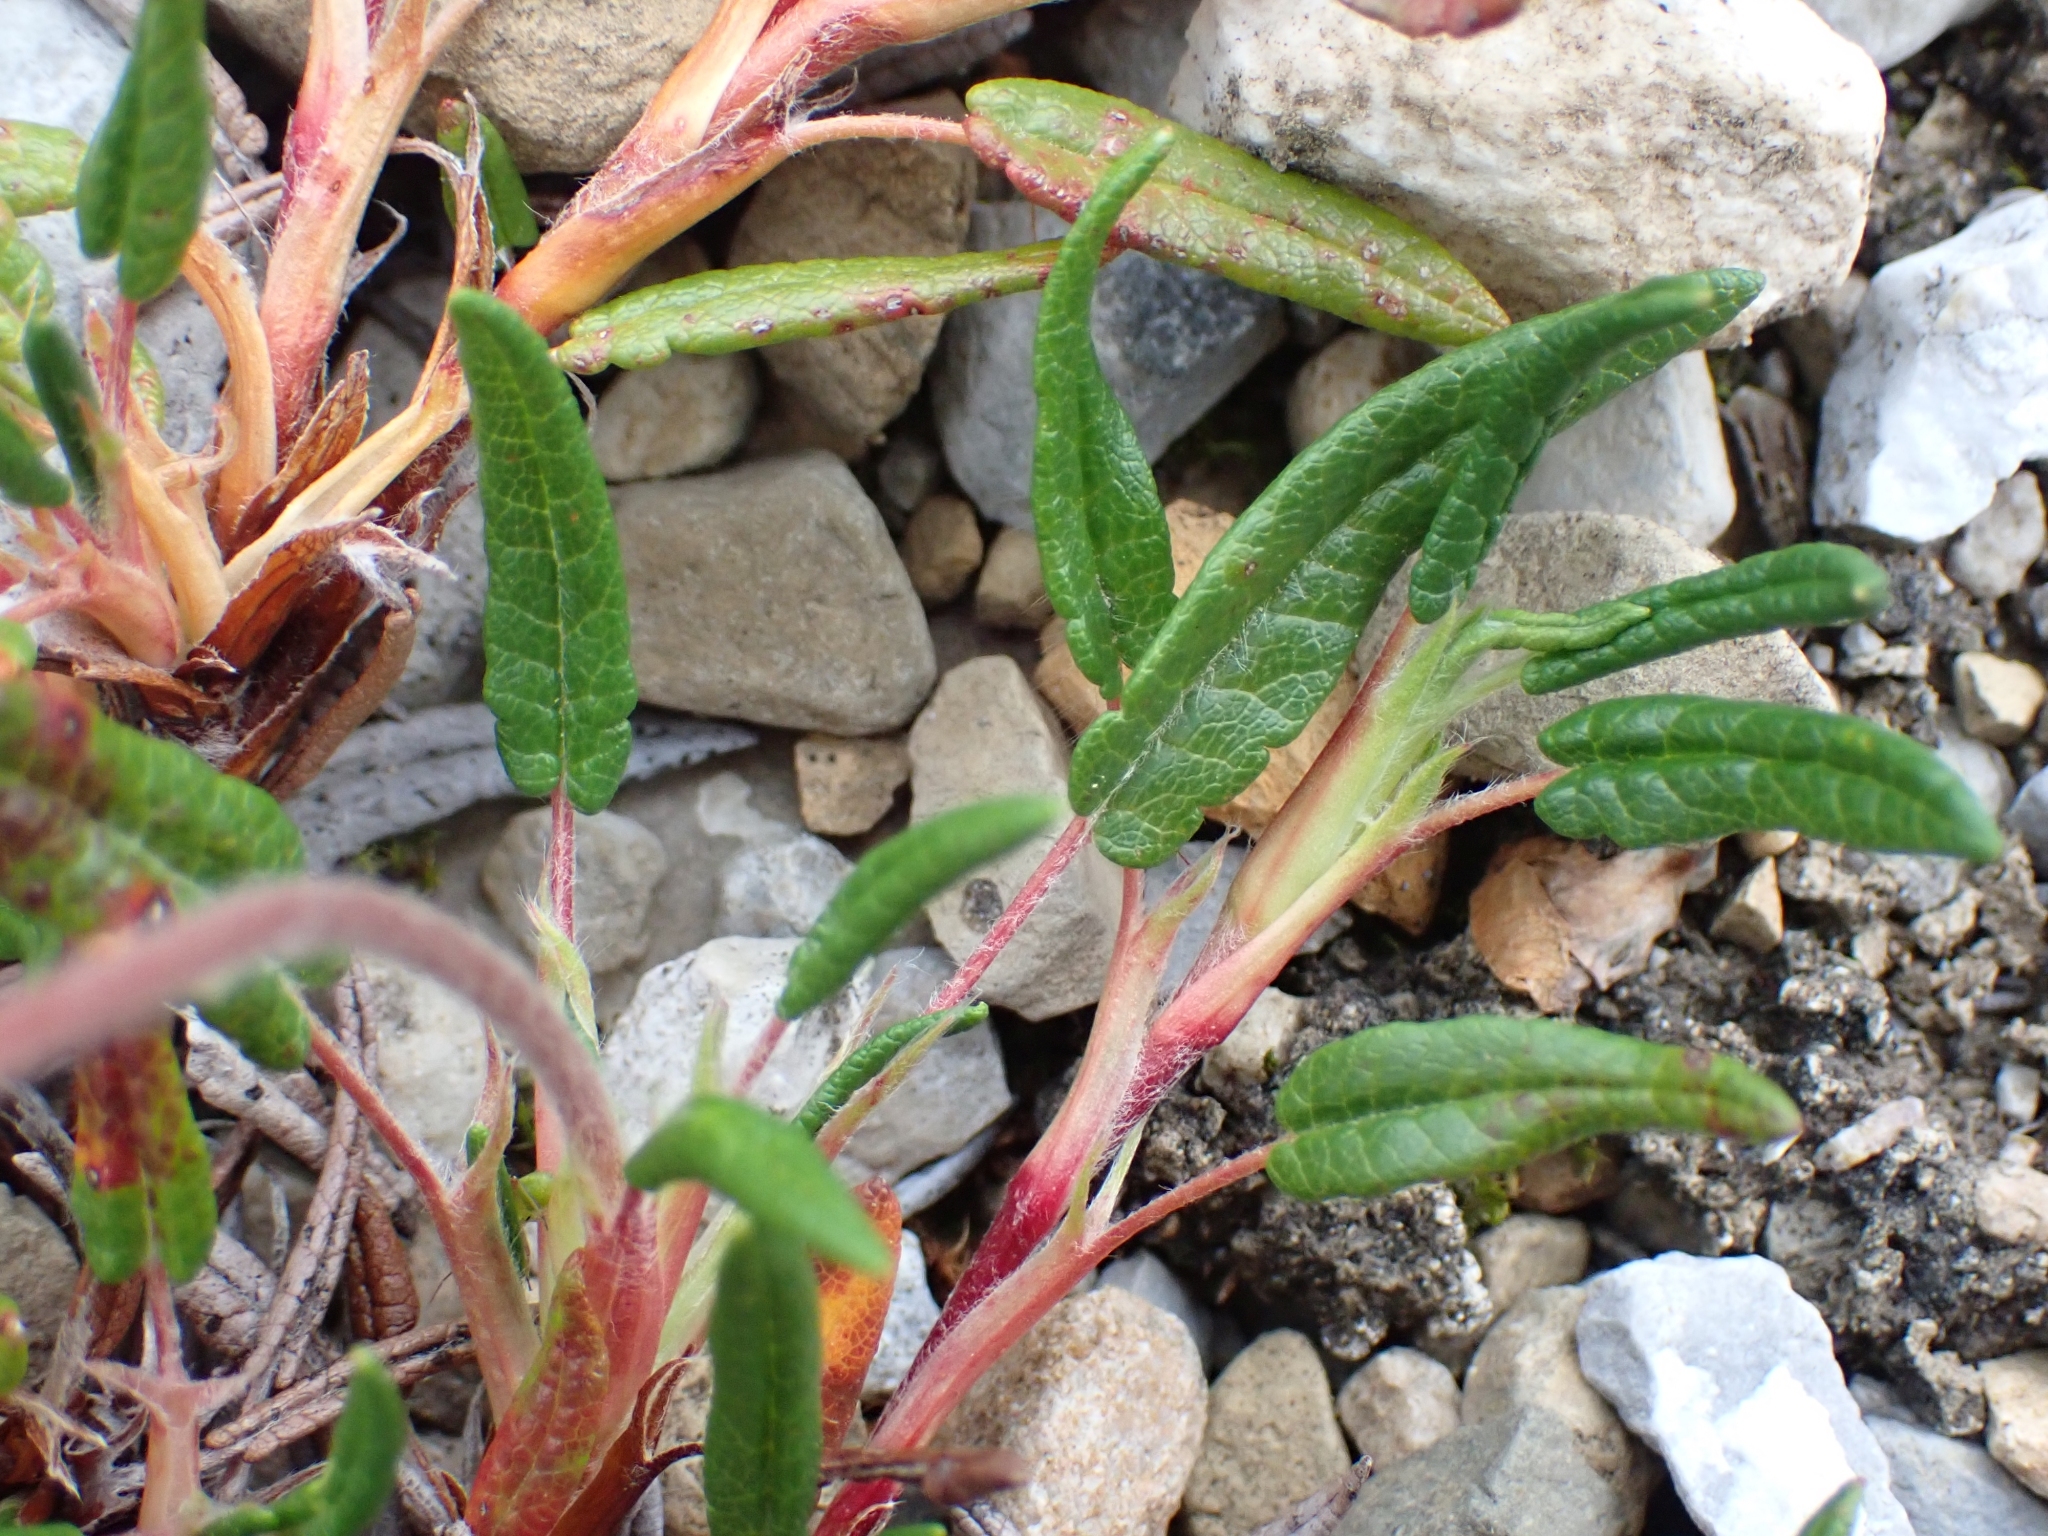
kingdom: Plantae
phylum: Tracheophyta
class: Magnoliopsida
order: Rosales
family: Rosaceae
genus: Dryas
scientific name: Dryas integrifolia
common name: Entire-leaved mountain avens
